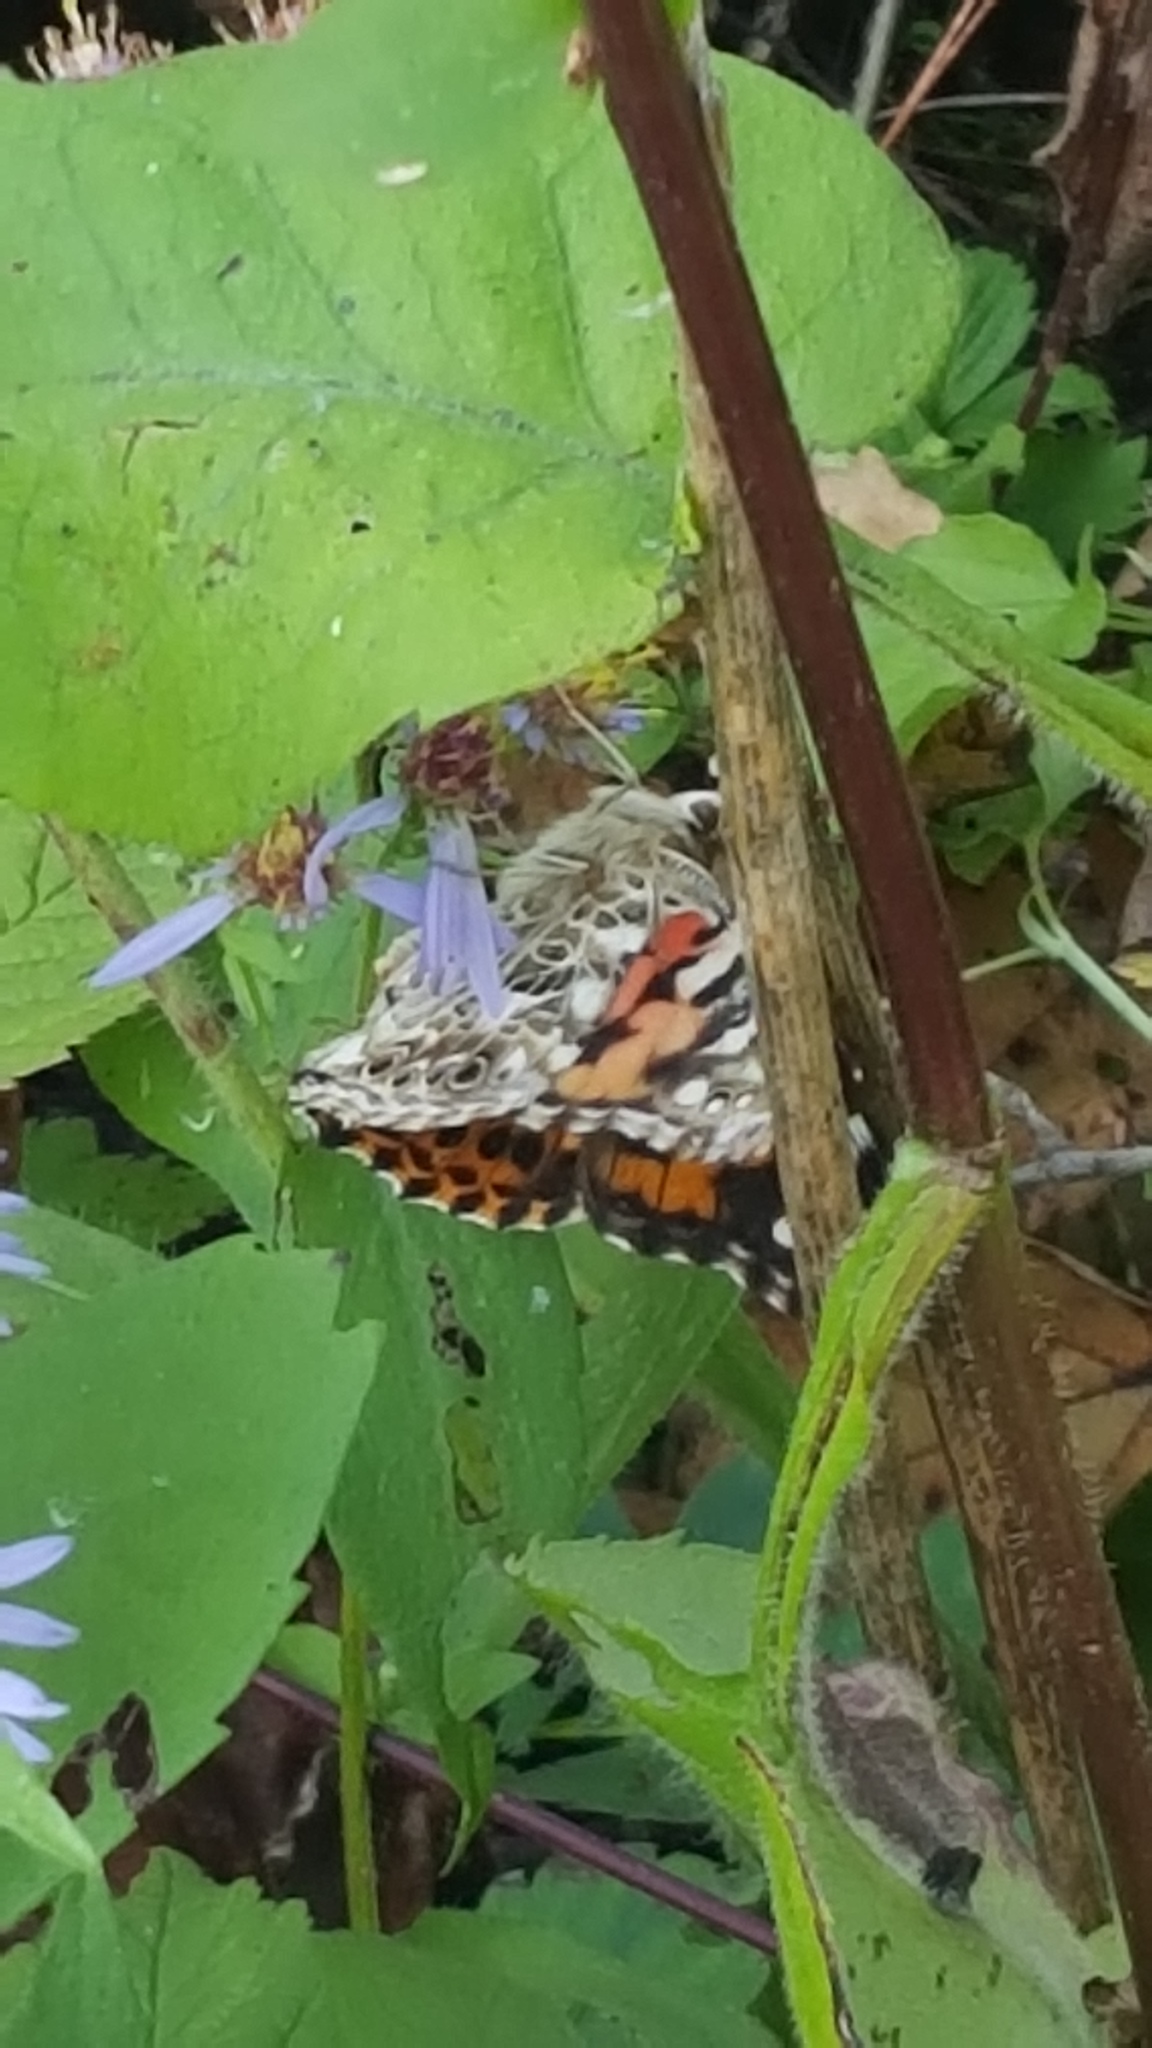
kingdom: Animalia
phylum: Arthropoda
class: Insecta
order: Lepidoptera
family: Nymphalidae
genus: Vanessa
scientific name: Vanessa cardui
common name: Painted lady
